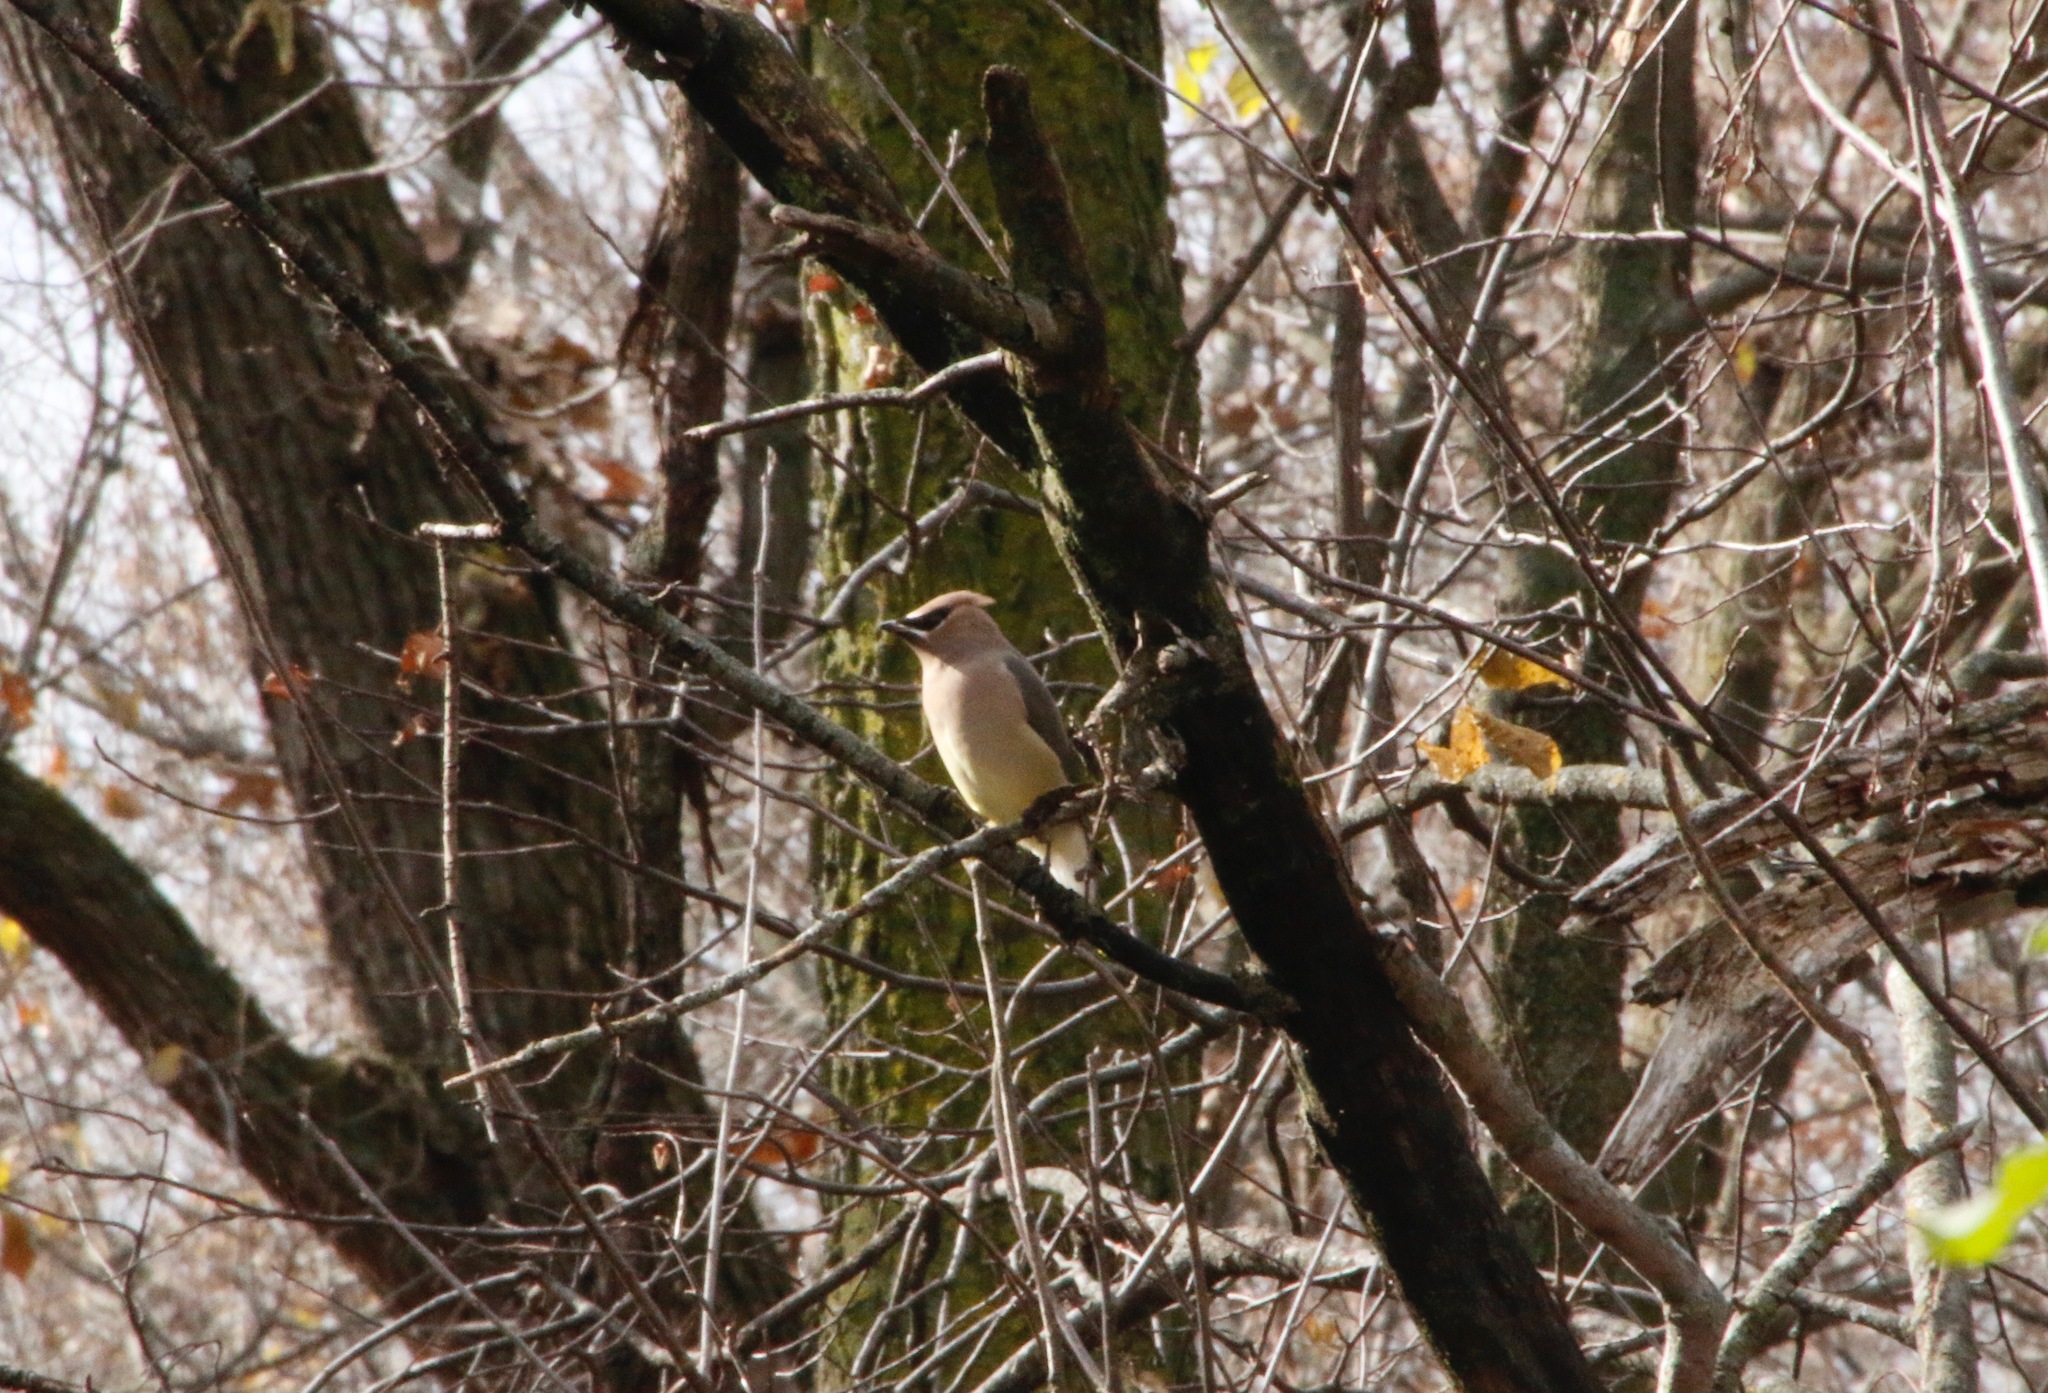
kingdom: Animalia
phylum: Chordata
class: Aves
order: Passeriformes
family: Bombycillidae
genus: Bombycilla
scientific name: Bombycilla cedrorum
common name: Cedar waxwing
